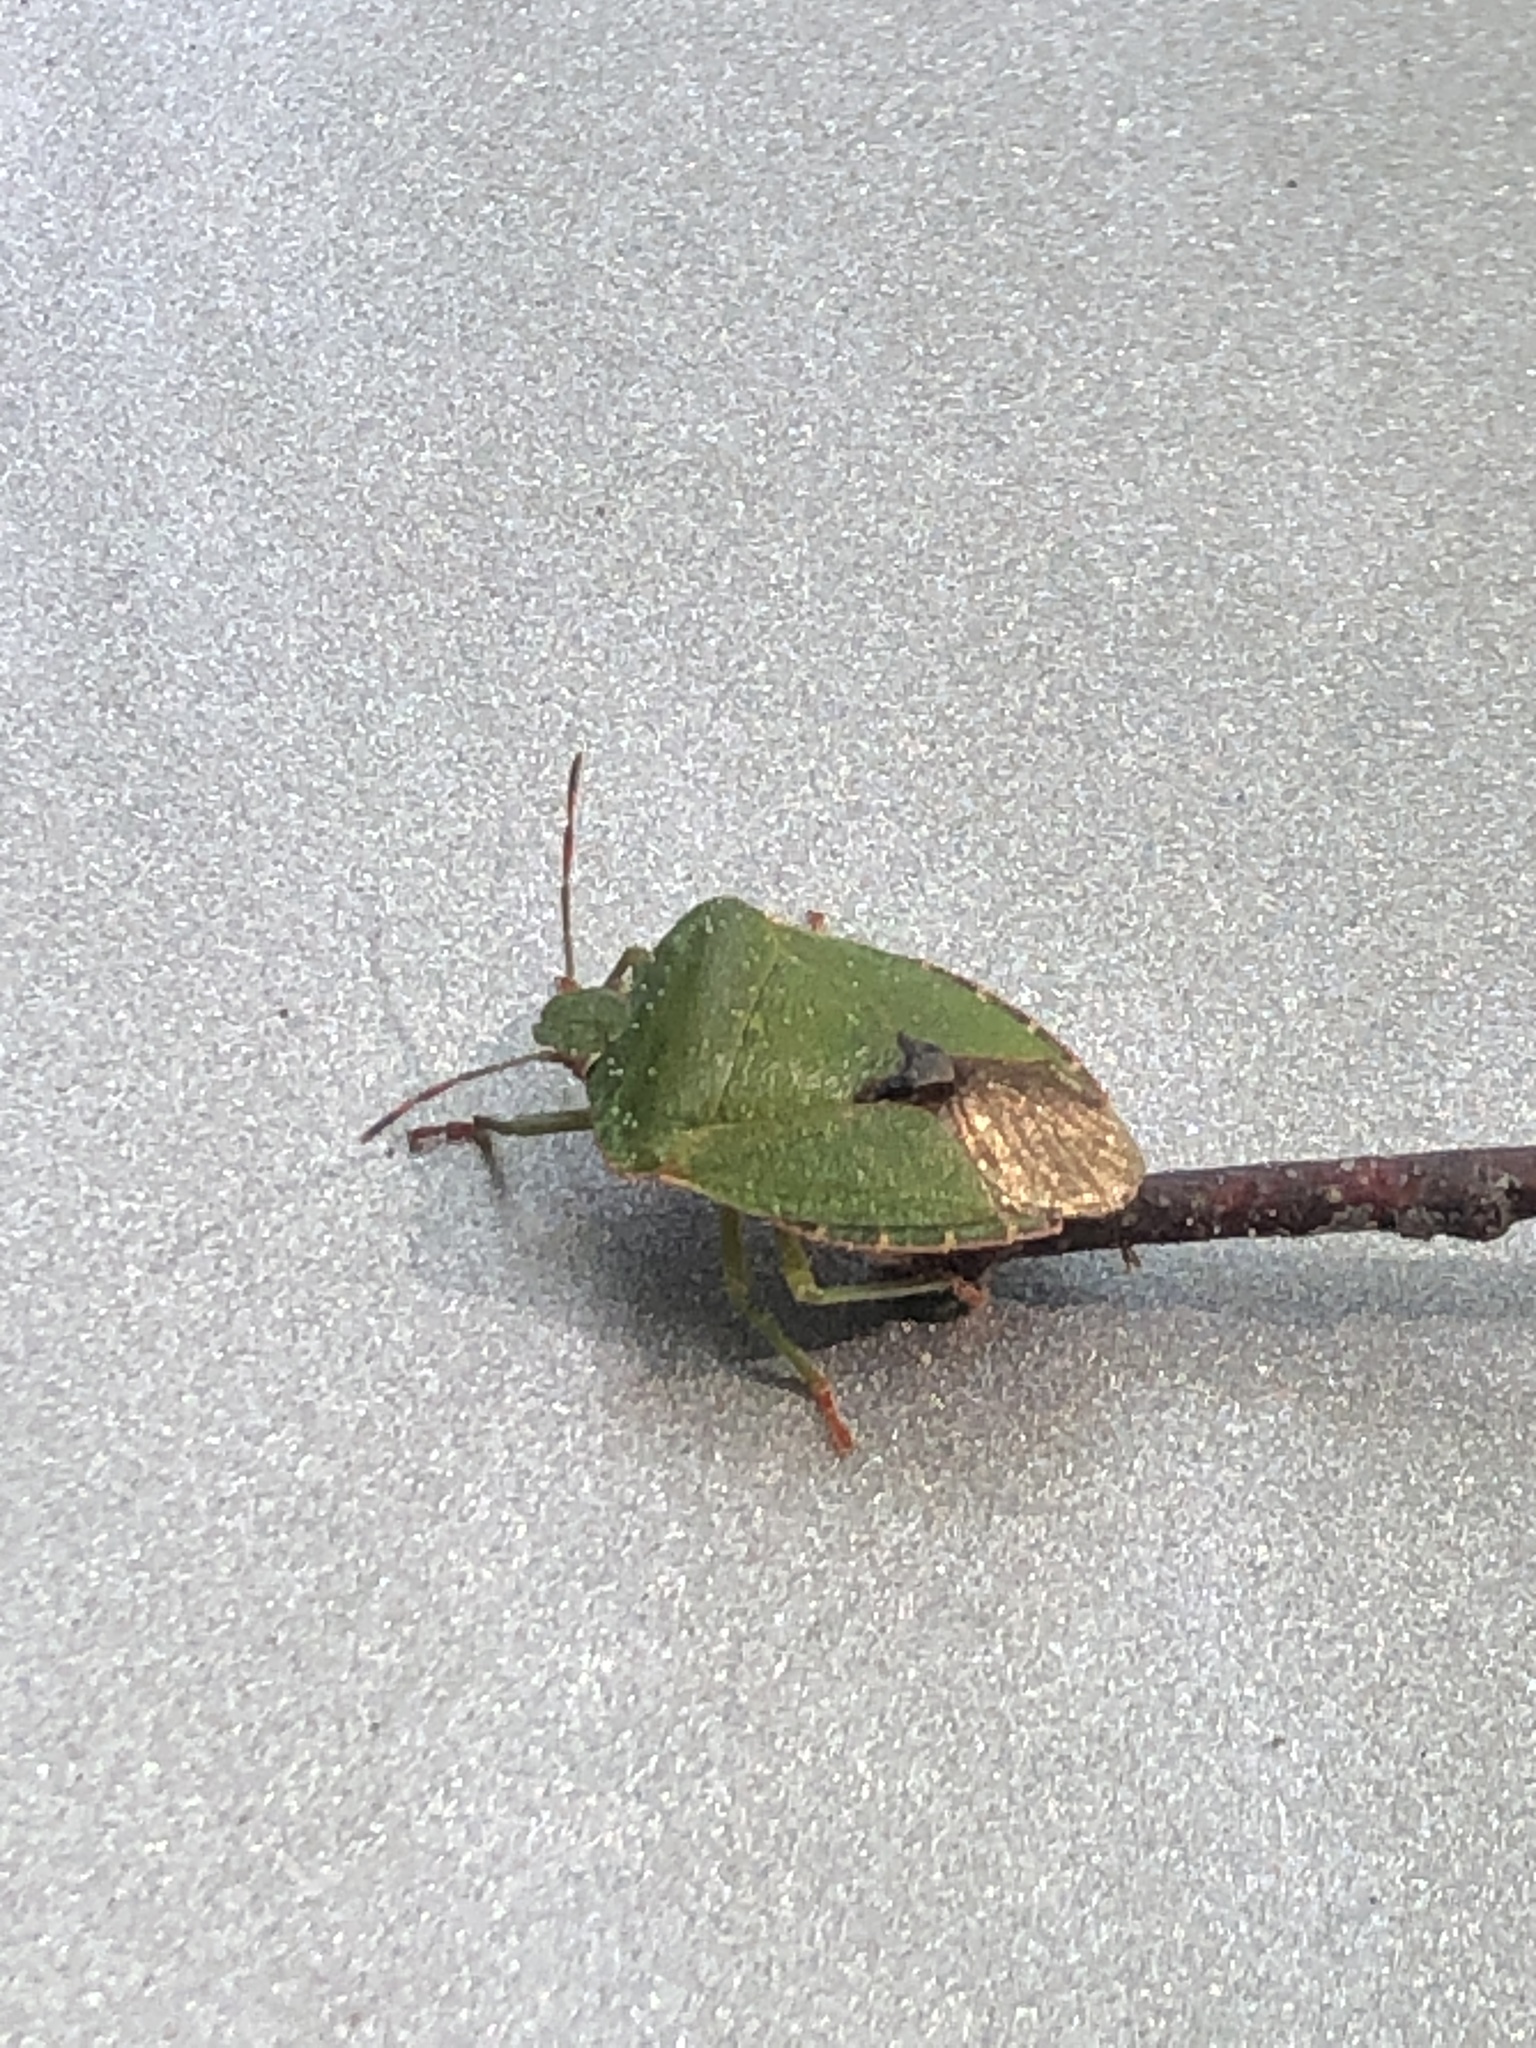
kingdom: Animalia
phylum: Arthropoda
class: Insecta
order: Hemiptera
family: Pentatomidae
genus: Palomena
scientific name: Palomena prasina
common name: Green shieldbug
